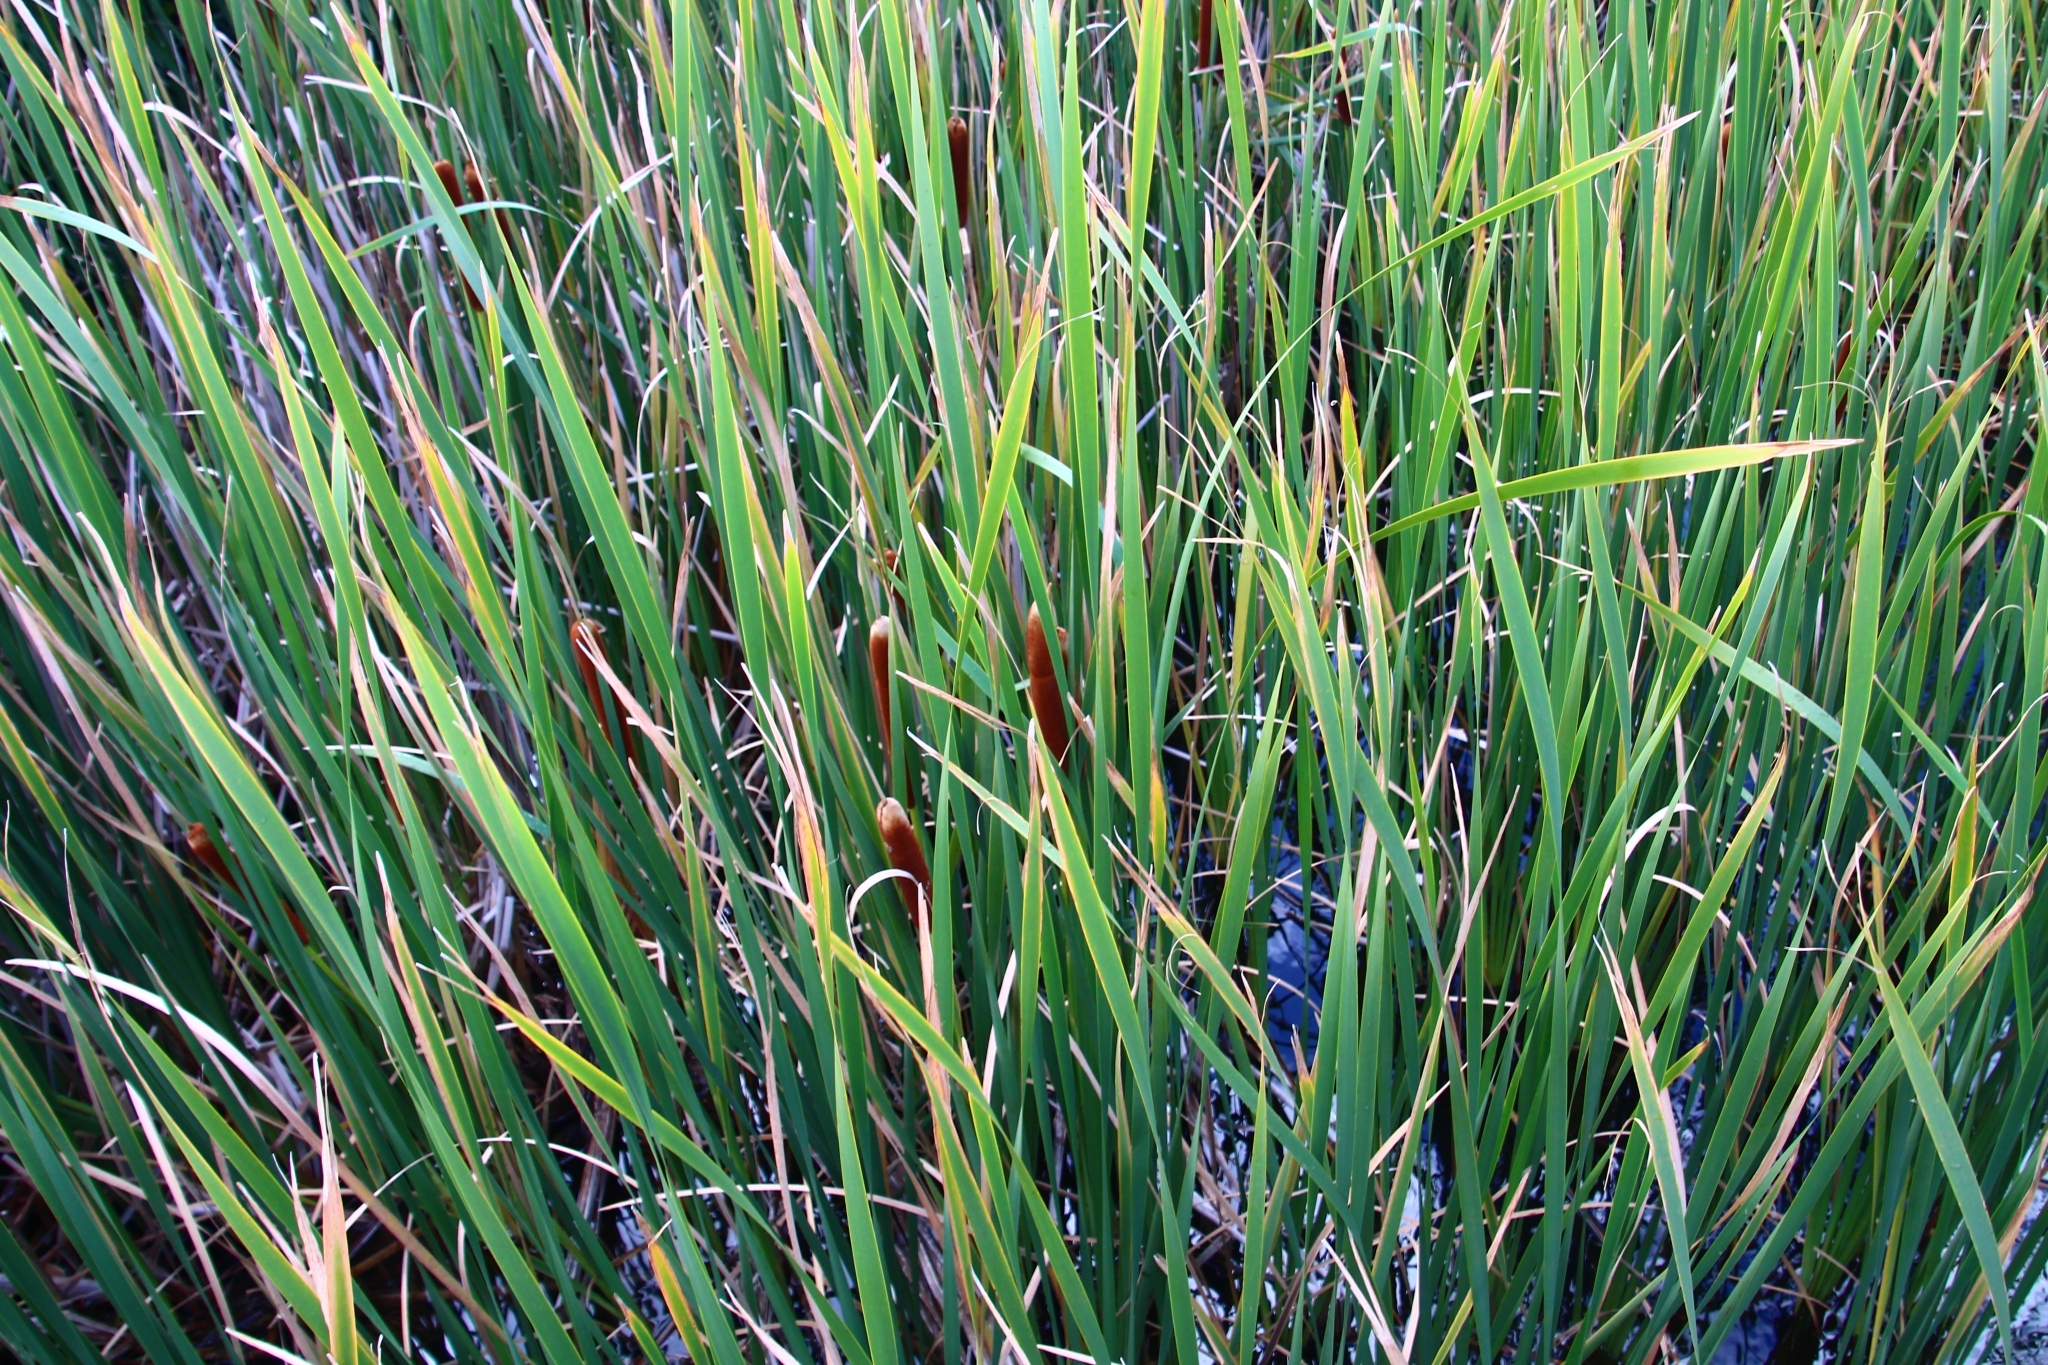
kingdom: Plantae
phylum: Tracheophyta
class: Liliopsida
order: Poales
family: Typhaceae
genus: Typha
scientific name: Typha orientalis
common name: Bullrush
